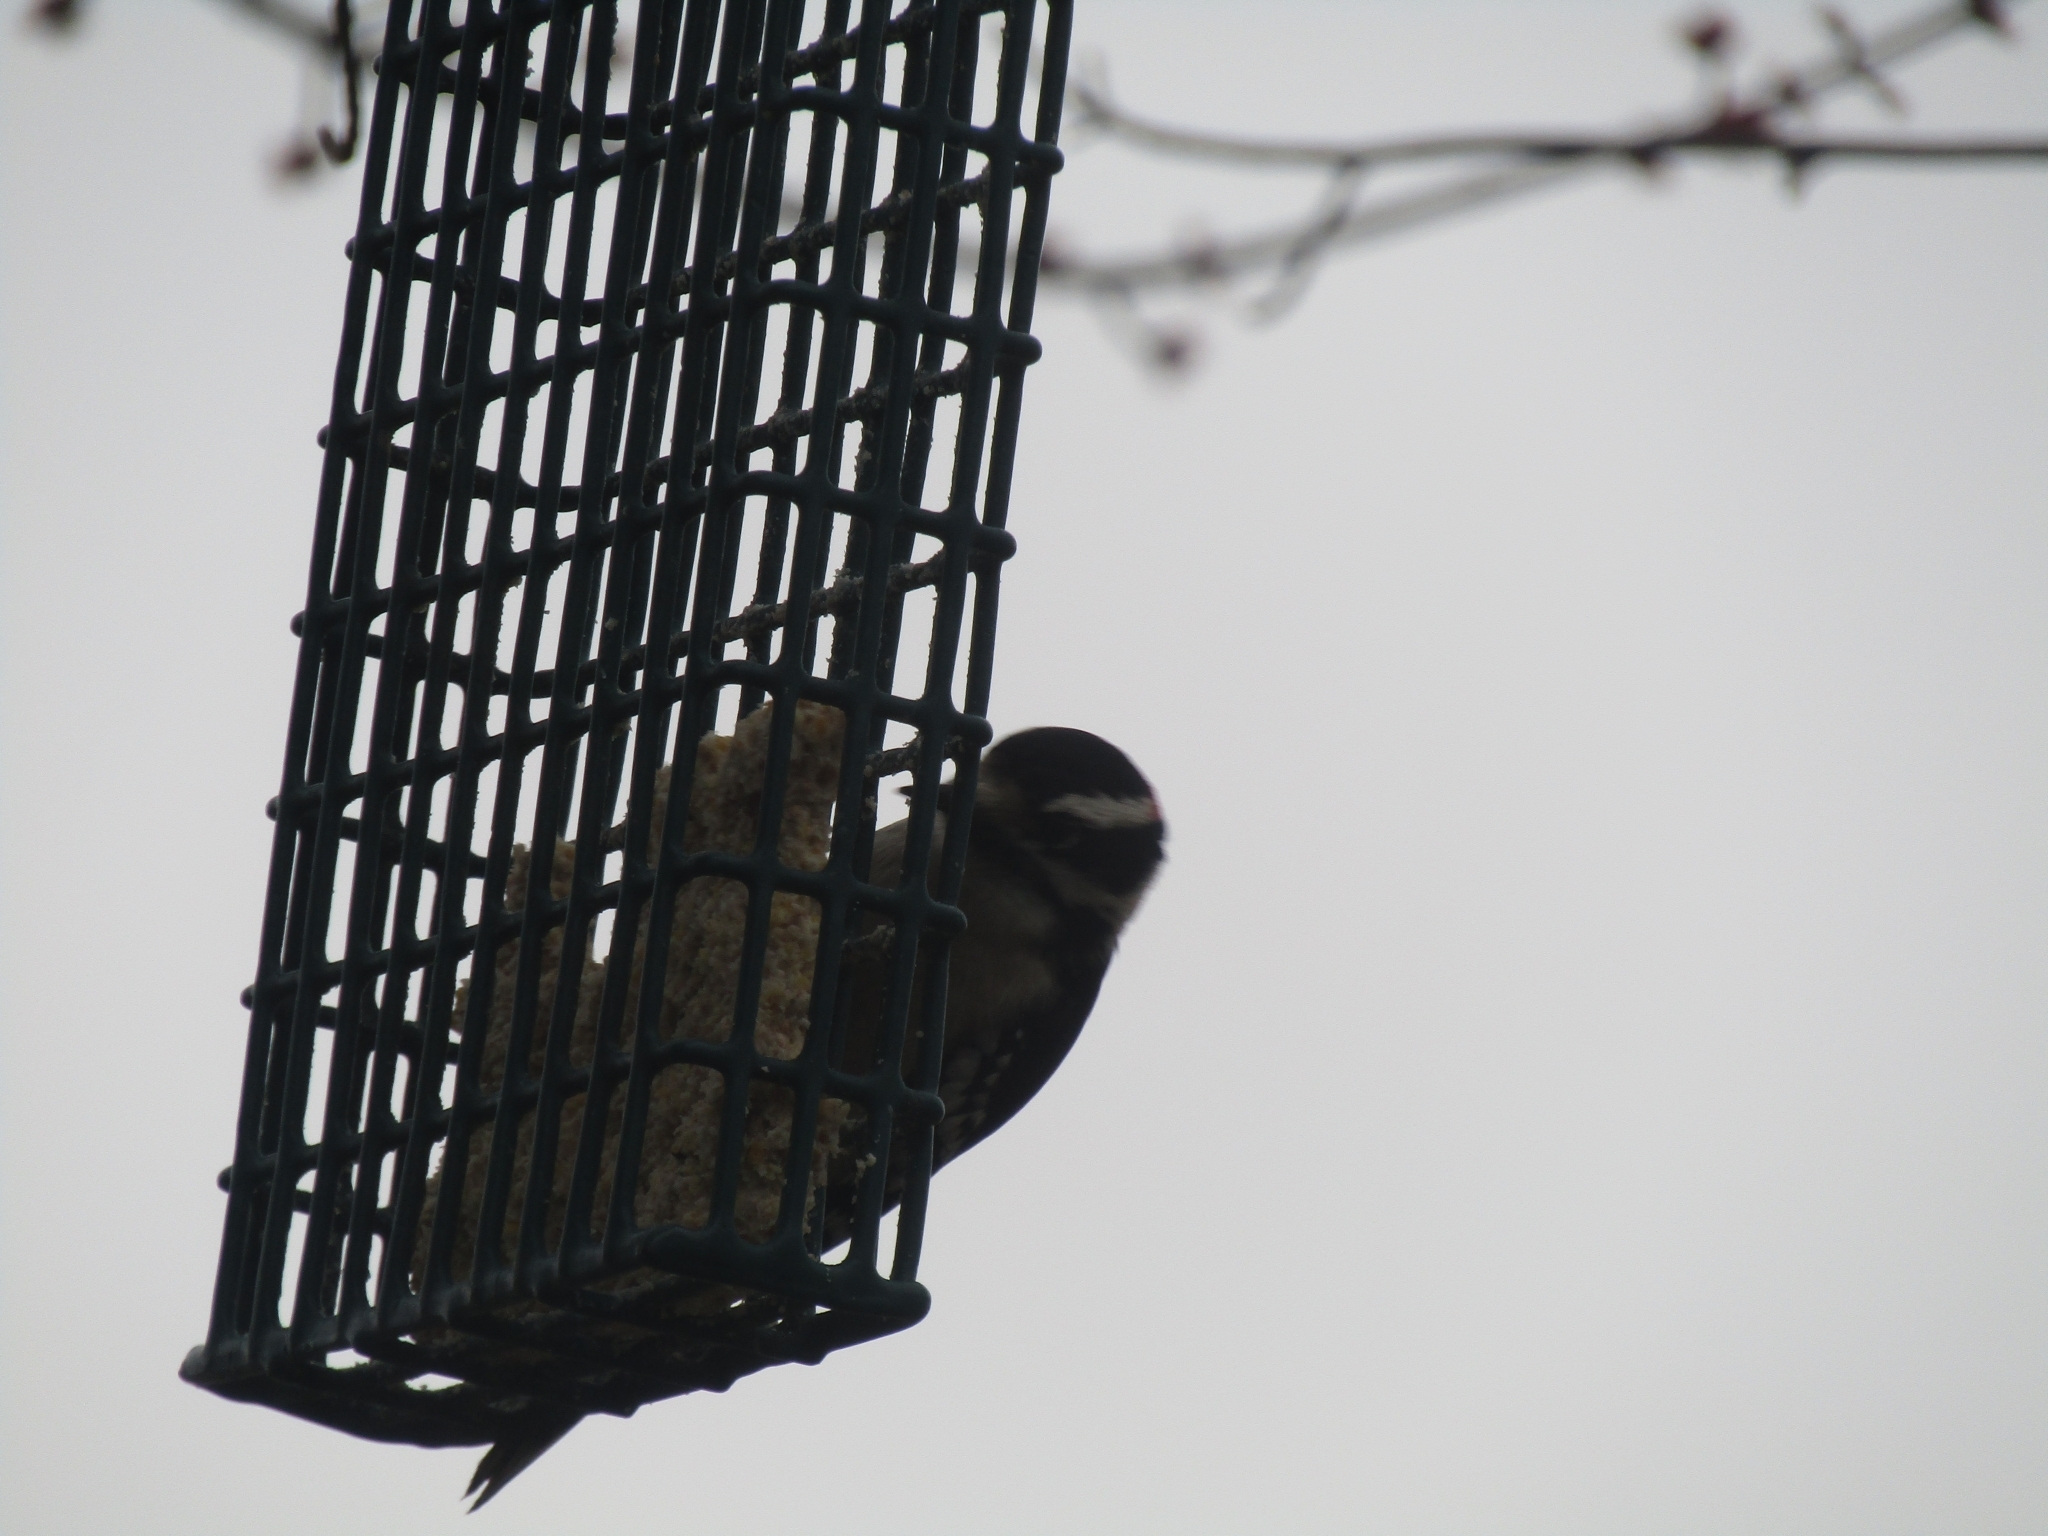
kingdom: Animalia
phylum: Chordata
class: Aves
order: Piciformes
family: Picidae
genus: Dryobates
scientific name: Dryobates pubescens
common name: Downy woodpecker
